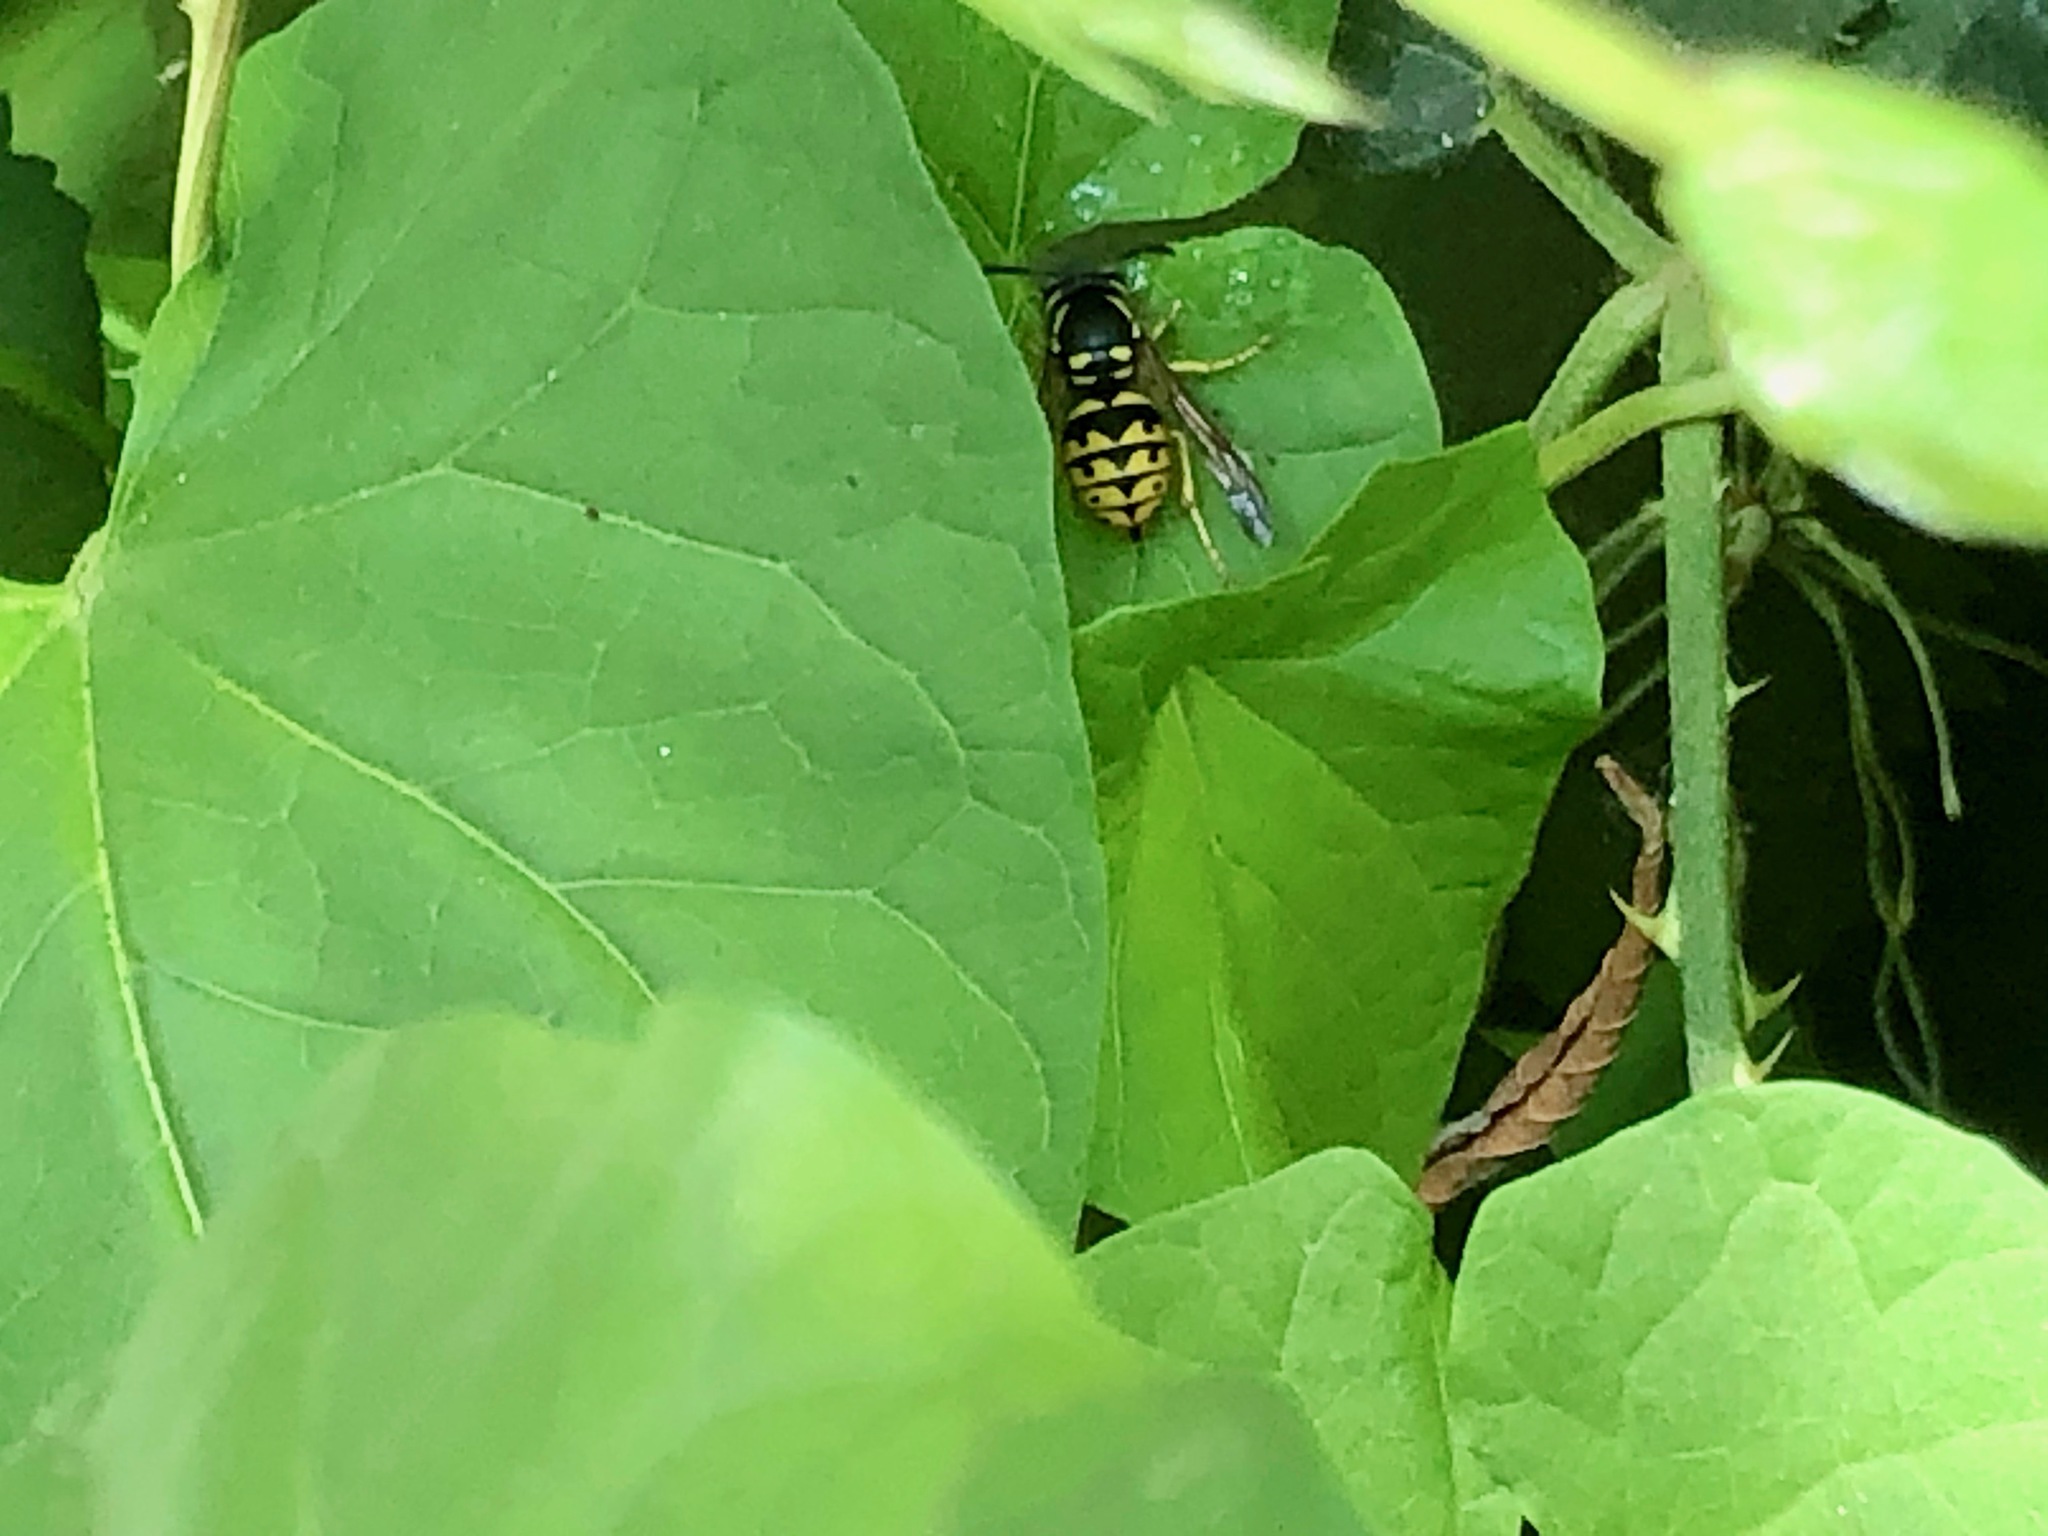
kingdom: Animalia
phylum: Arthropoda
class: Insecta
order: Hymenoptera
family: Vespidae
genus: Dolichovespula
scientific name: Dolichovespula arenaria
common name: Aerial yellowjacket
